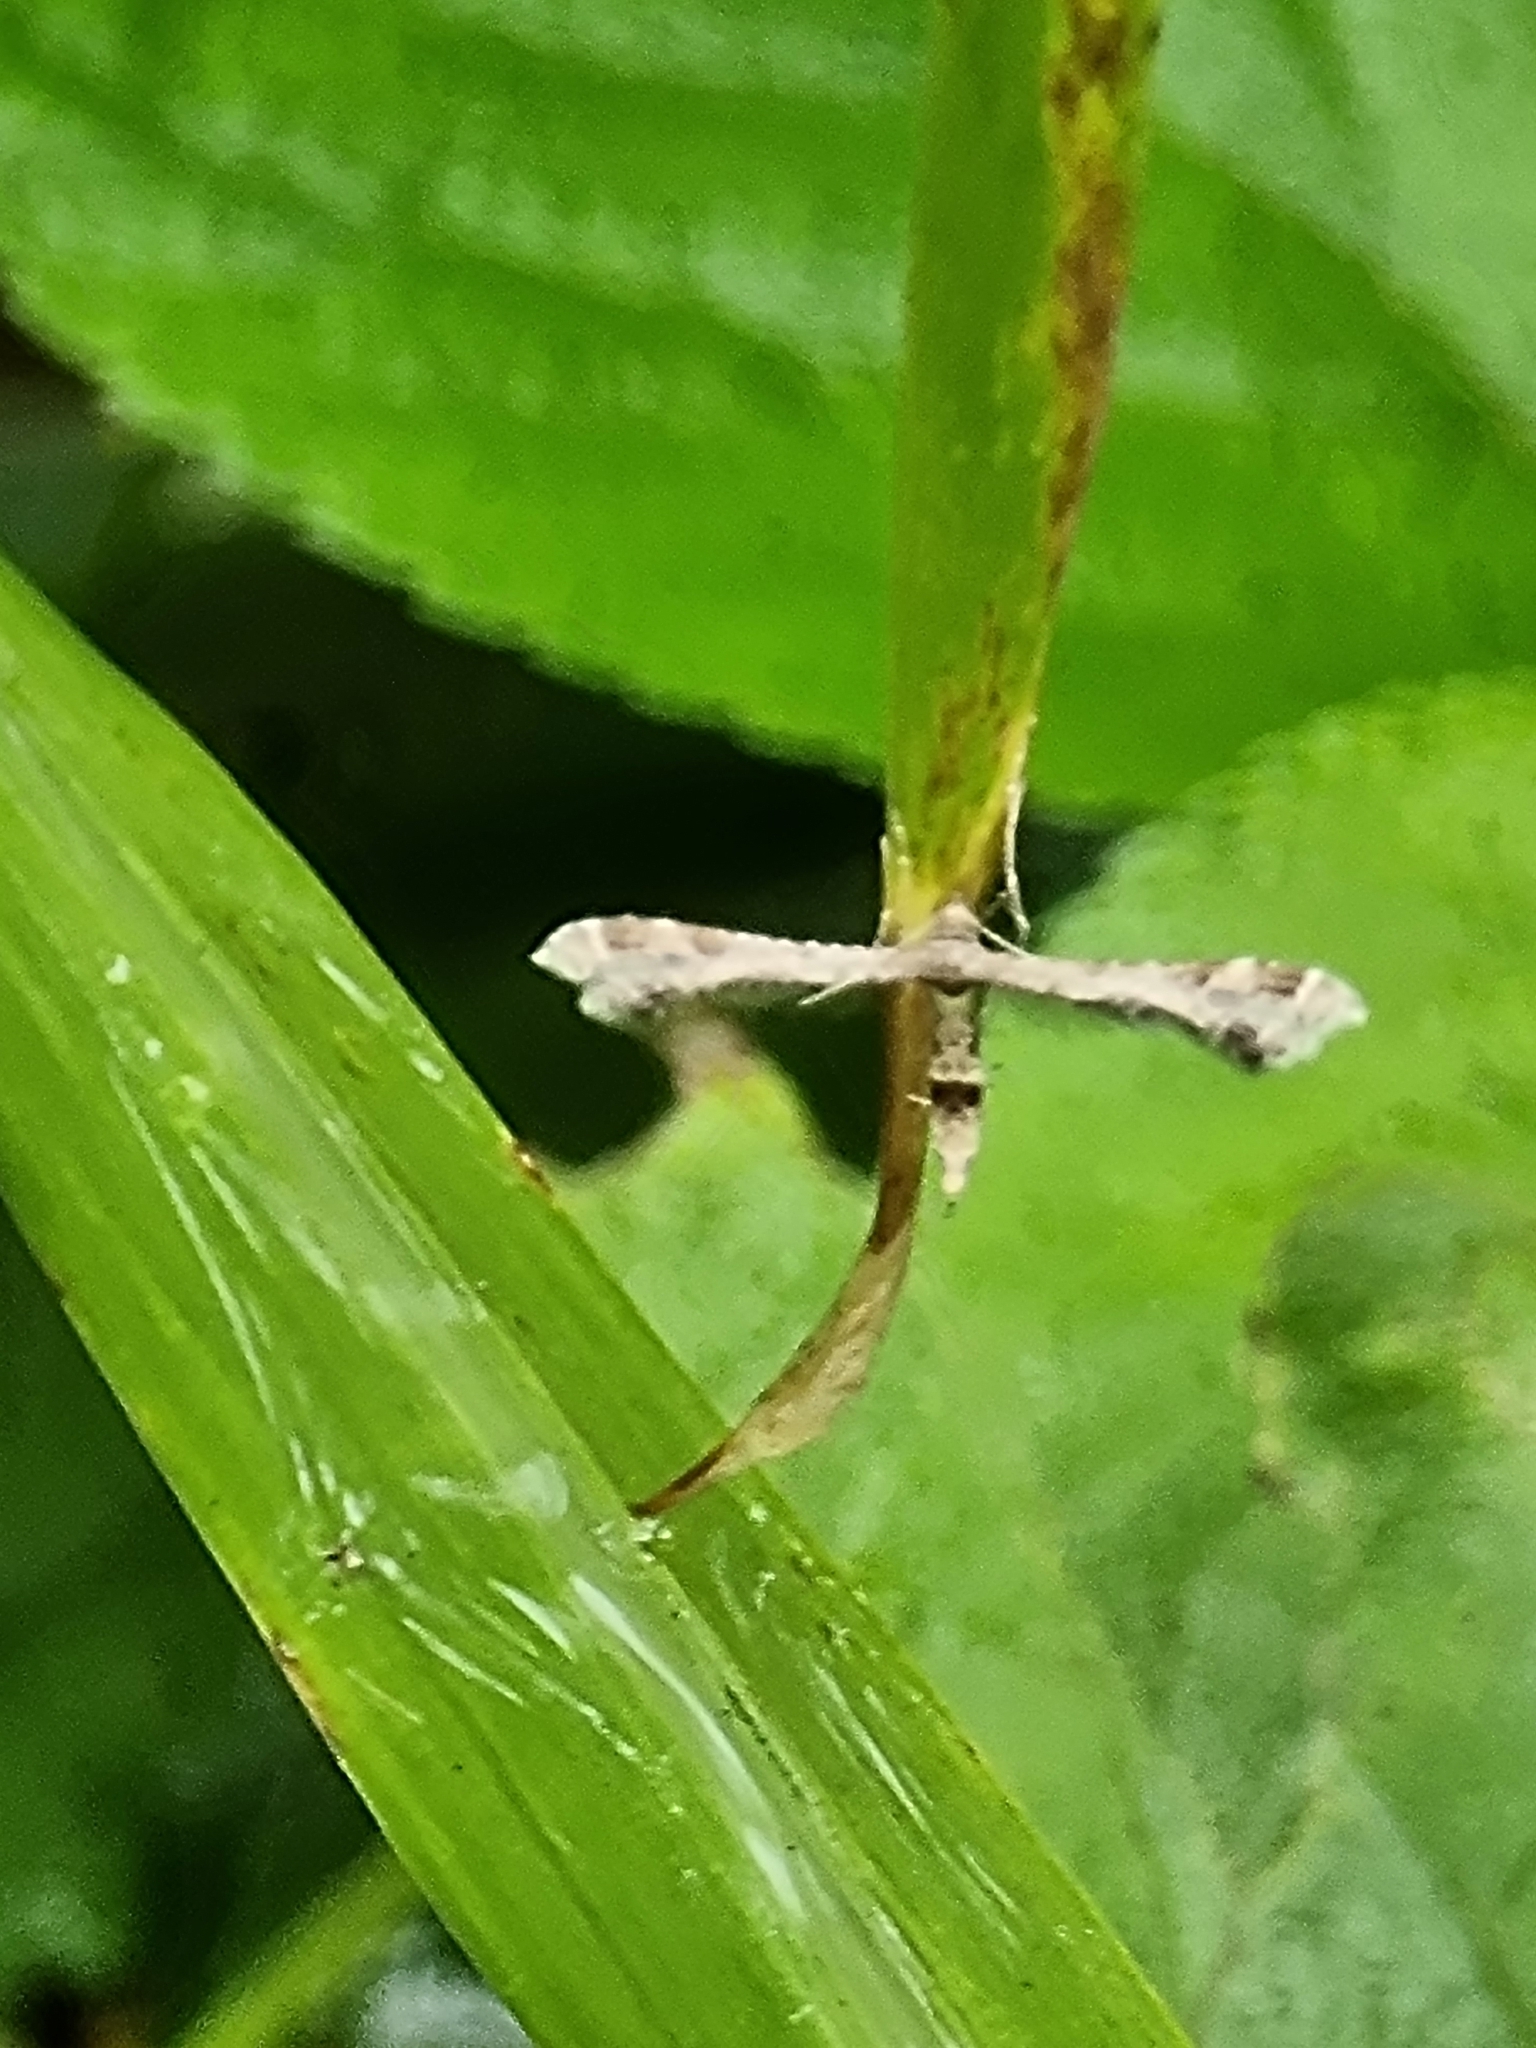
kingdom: Animalia
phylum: Arthropoda
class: Insecta
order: Lepidoptera
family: Pterophoridae
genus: Lantanophaga
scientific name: Lantanophaga pusillidactylus
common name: Moth
